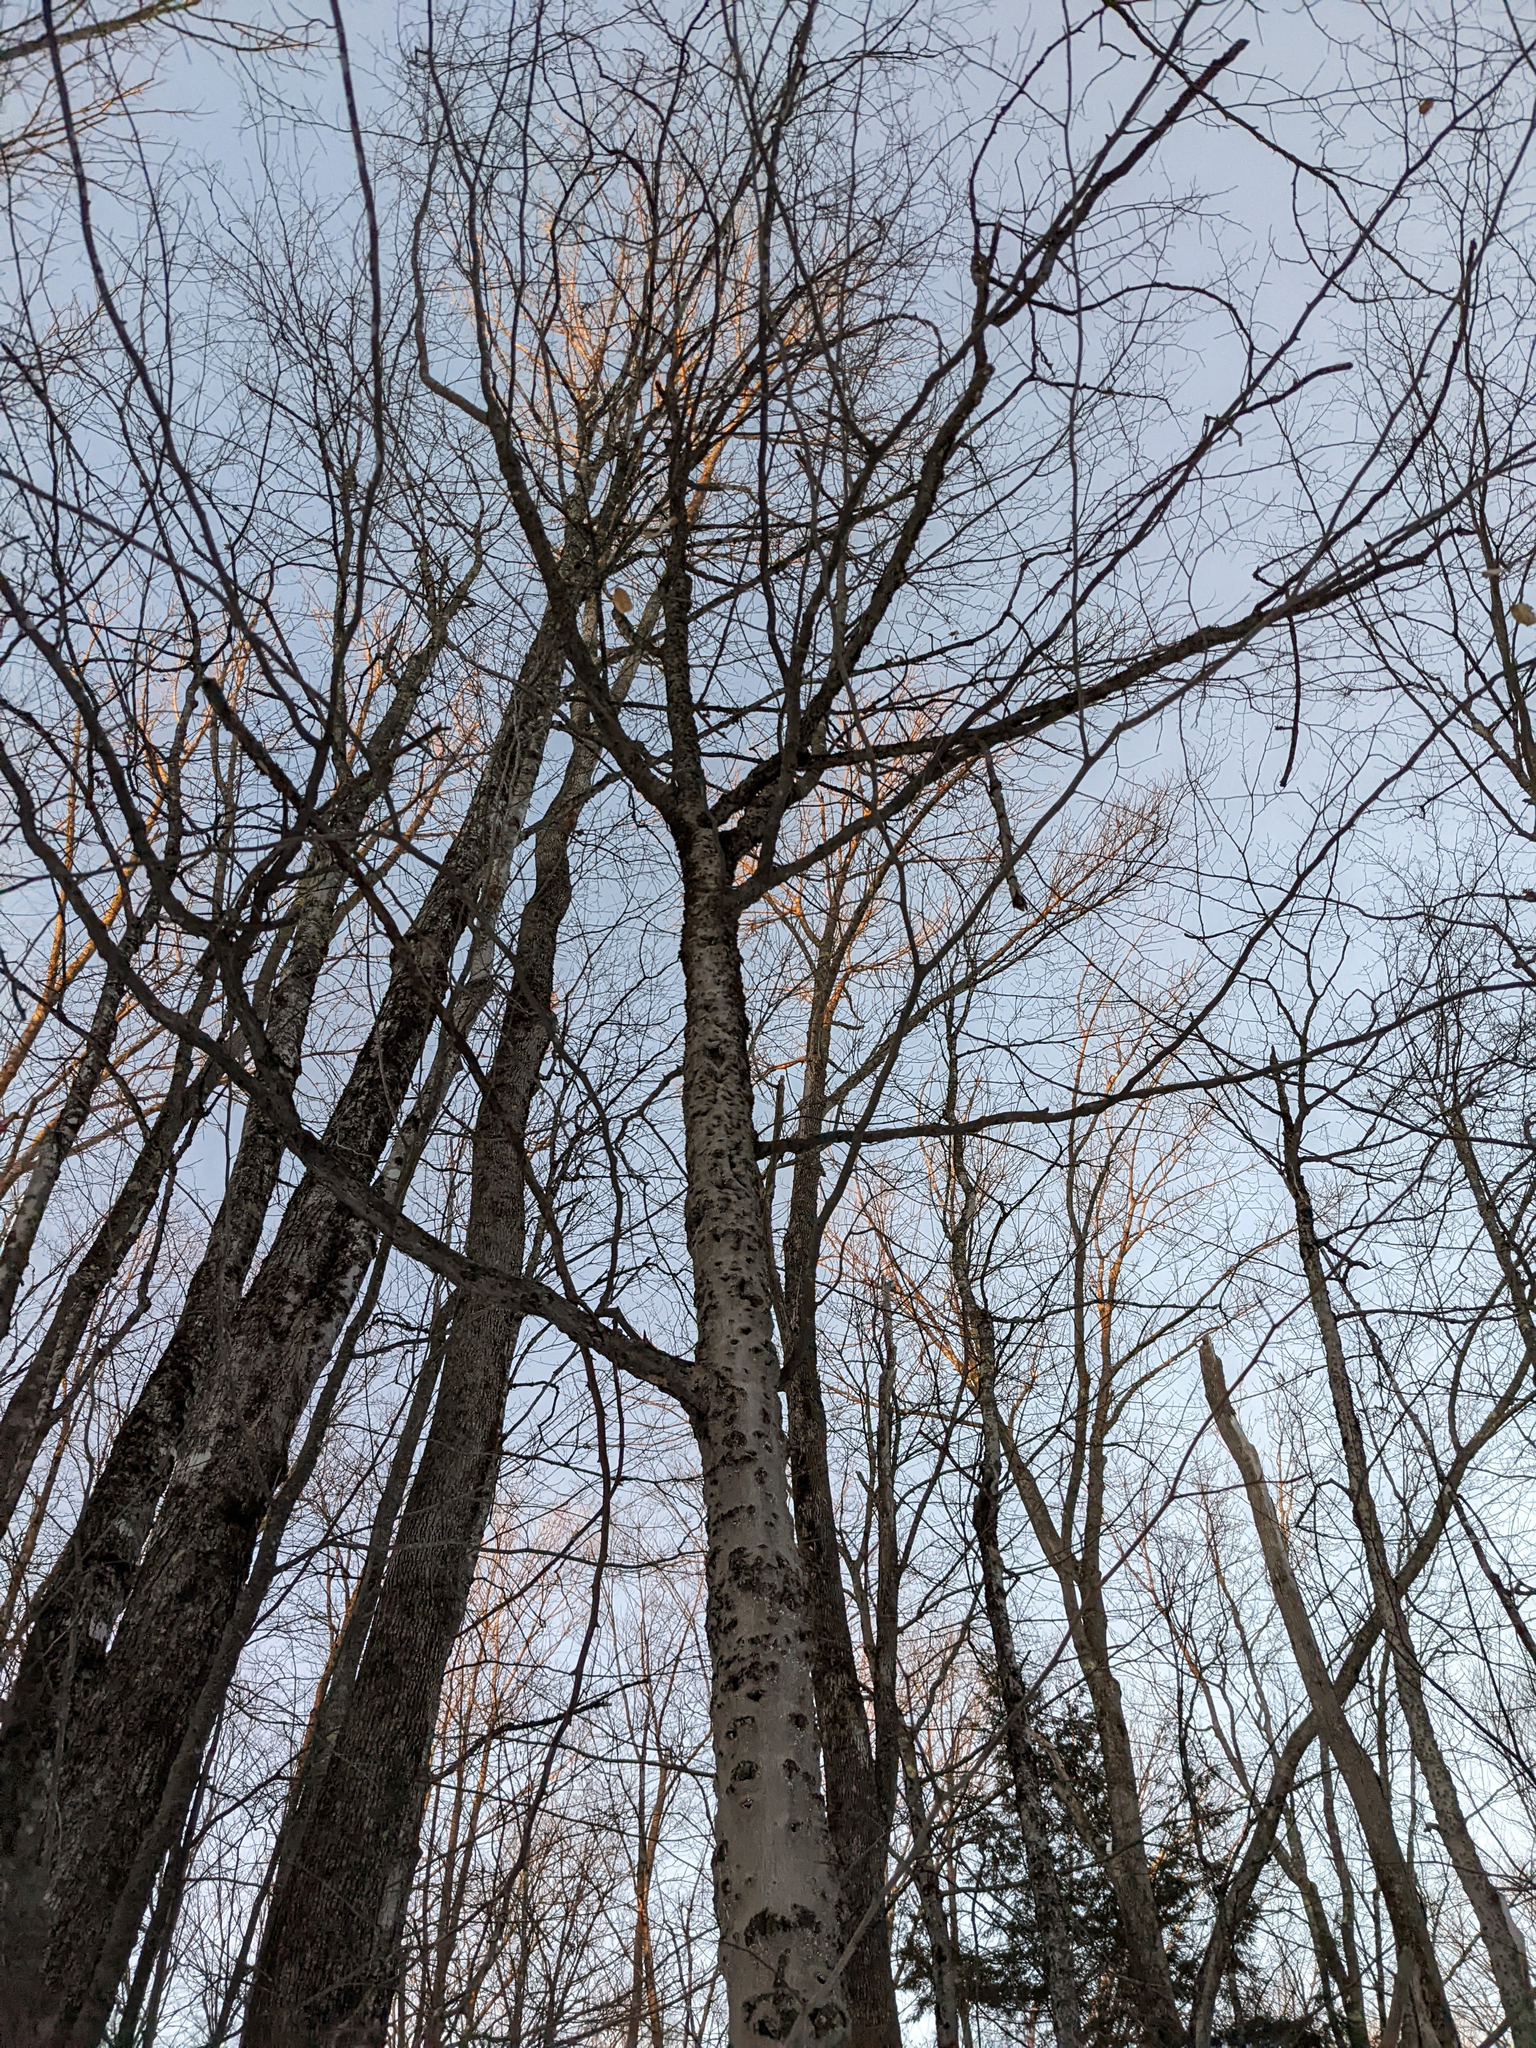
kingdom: Plantae
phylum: Tracheophyta
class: Magnoliopsida
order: Fagales
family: Fagaceae
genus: Fagus
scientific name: Fagus grandifolia
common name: American beech
